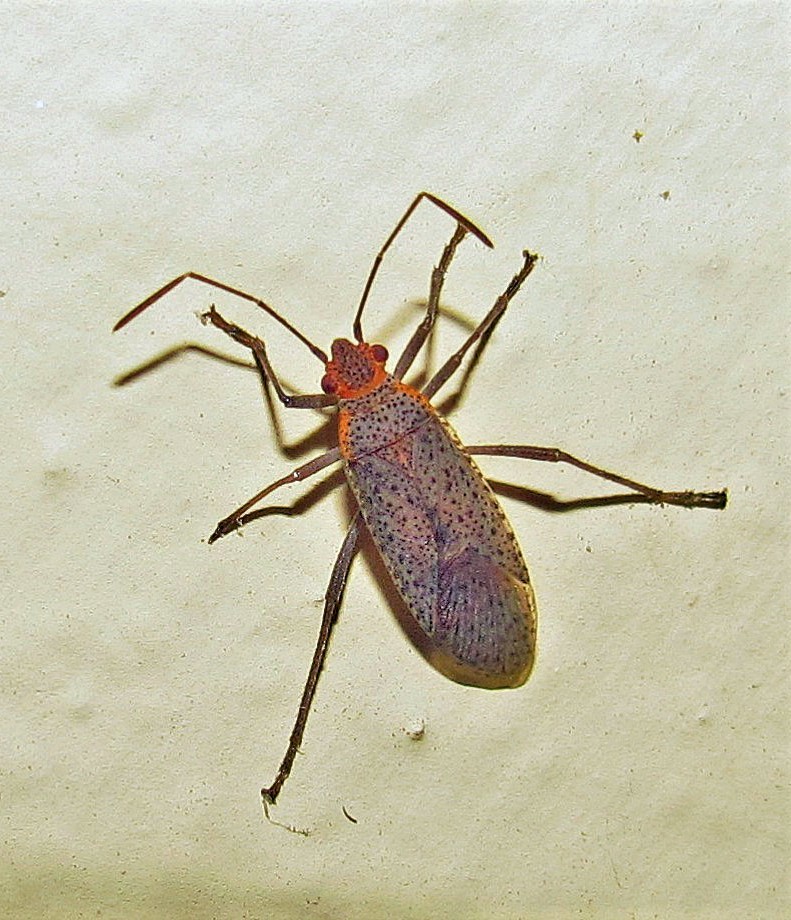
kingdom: Animalia
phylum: Arthropoda
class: Insecta
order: Hemiptera
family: Rhopalidae
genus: Jadera
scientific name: Jadera coturnix
